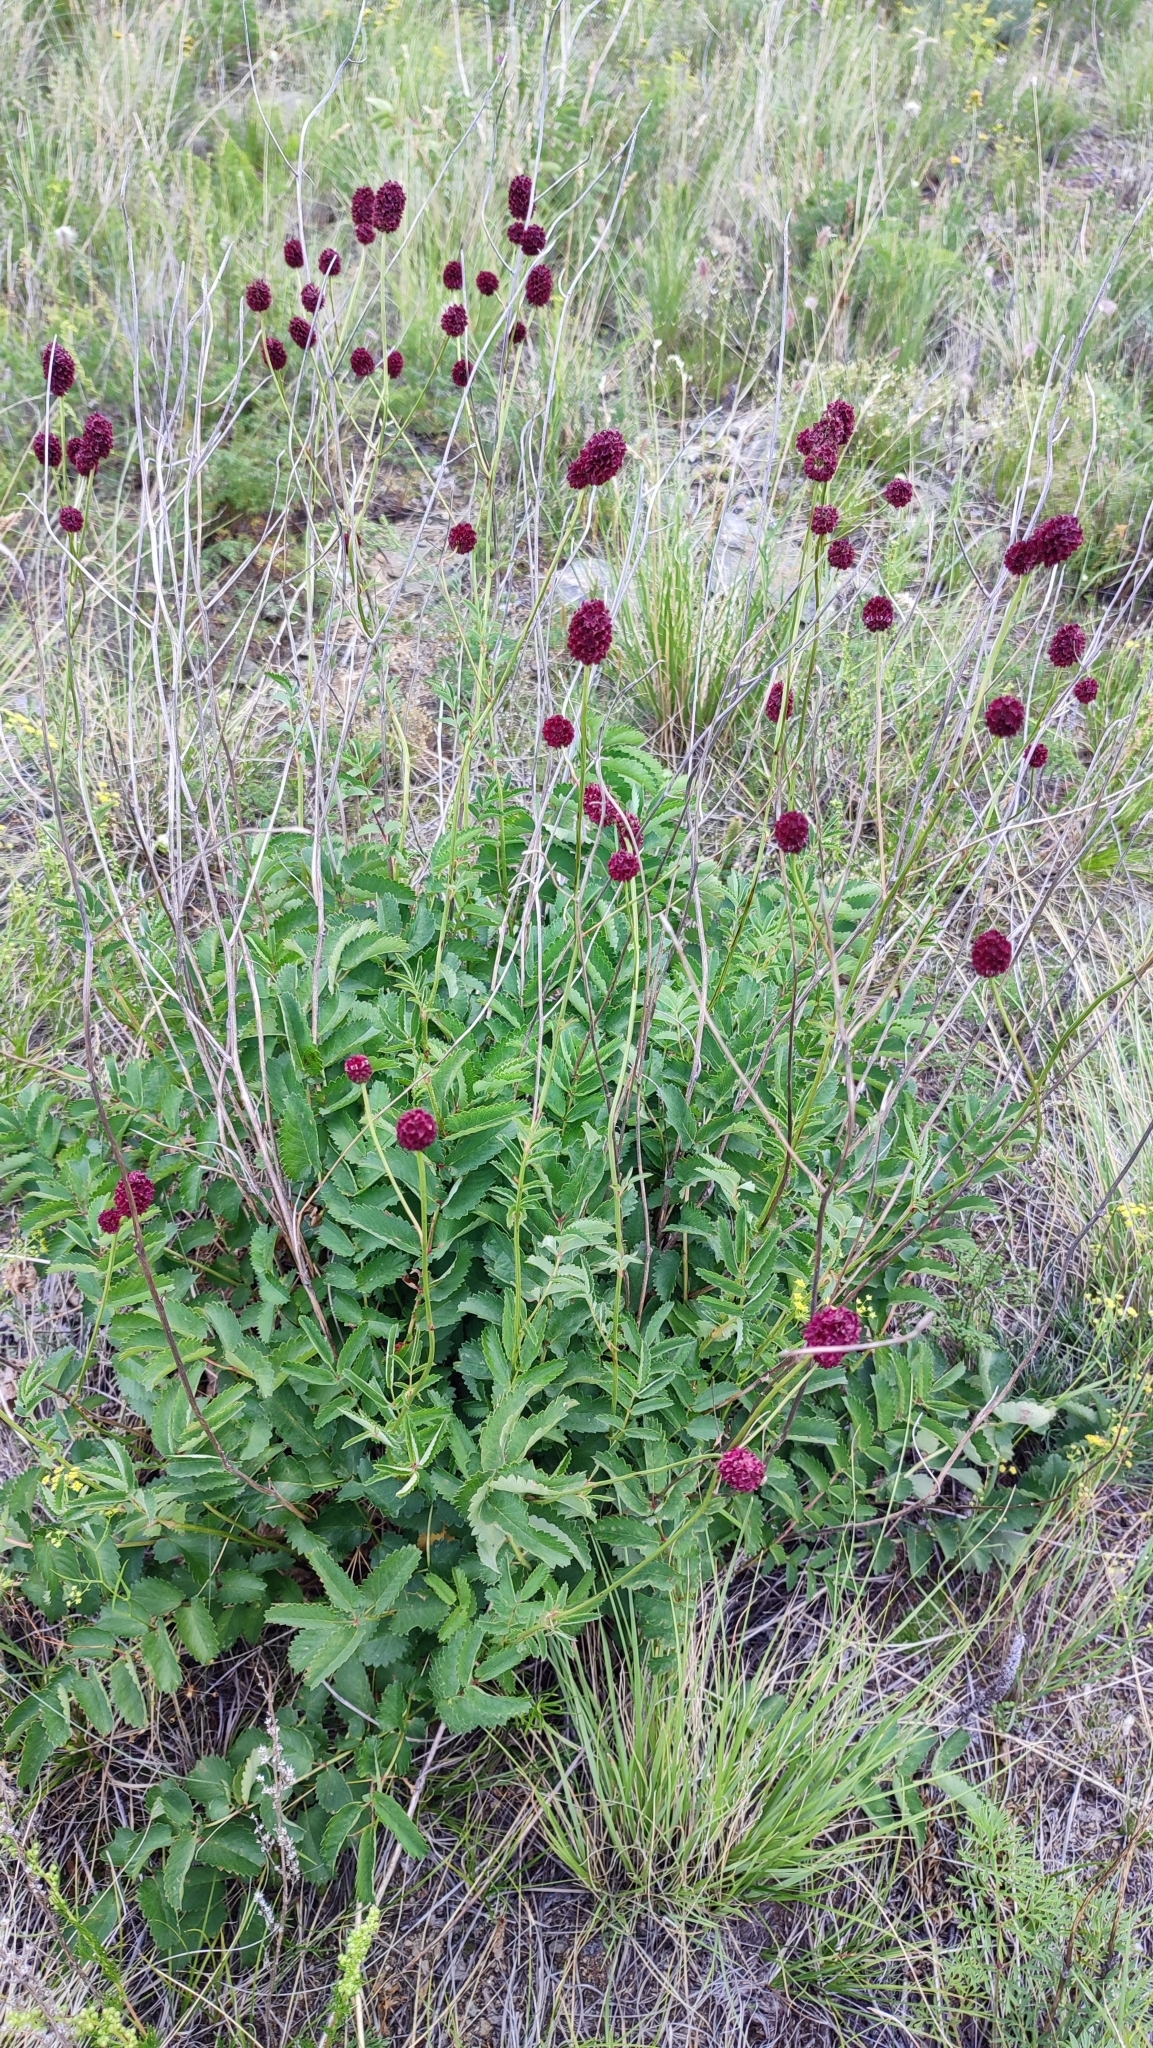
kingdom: Plantae
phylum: Tracheophyta
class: Magnoliopsida
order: Rosales
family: Rosaceae
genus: Sanguisorba
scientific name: Sanguisorba officinalis
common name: Great burnet
